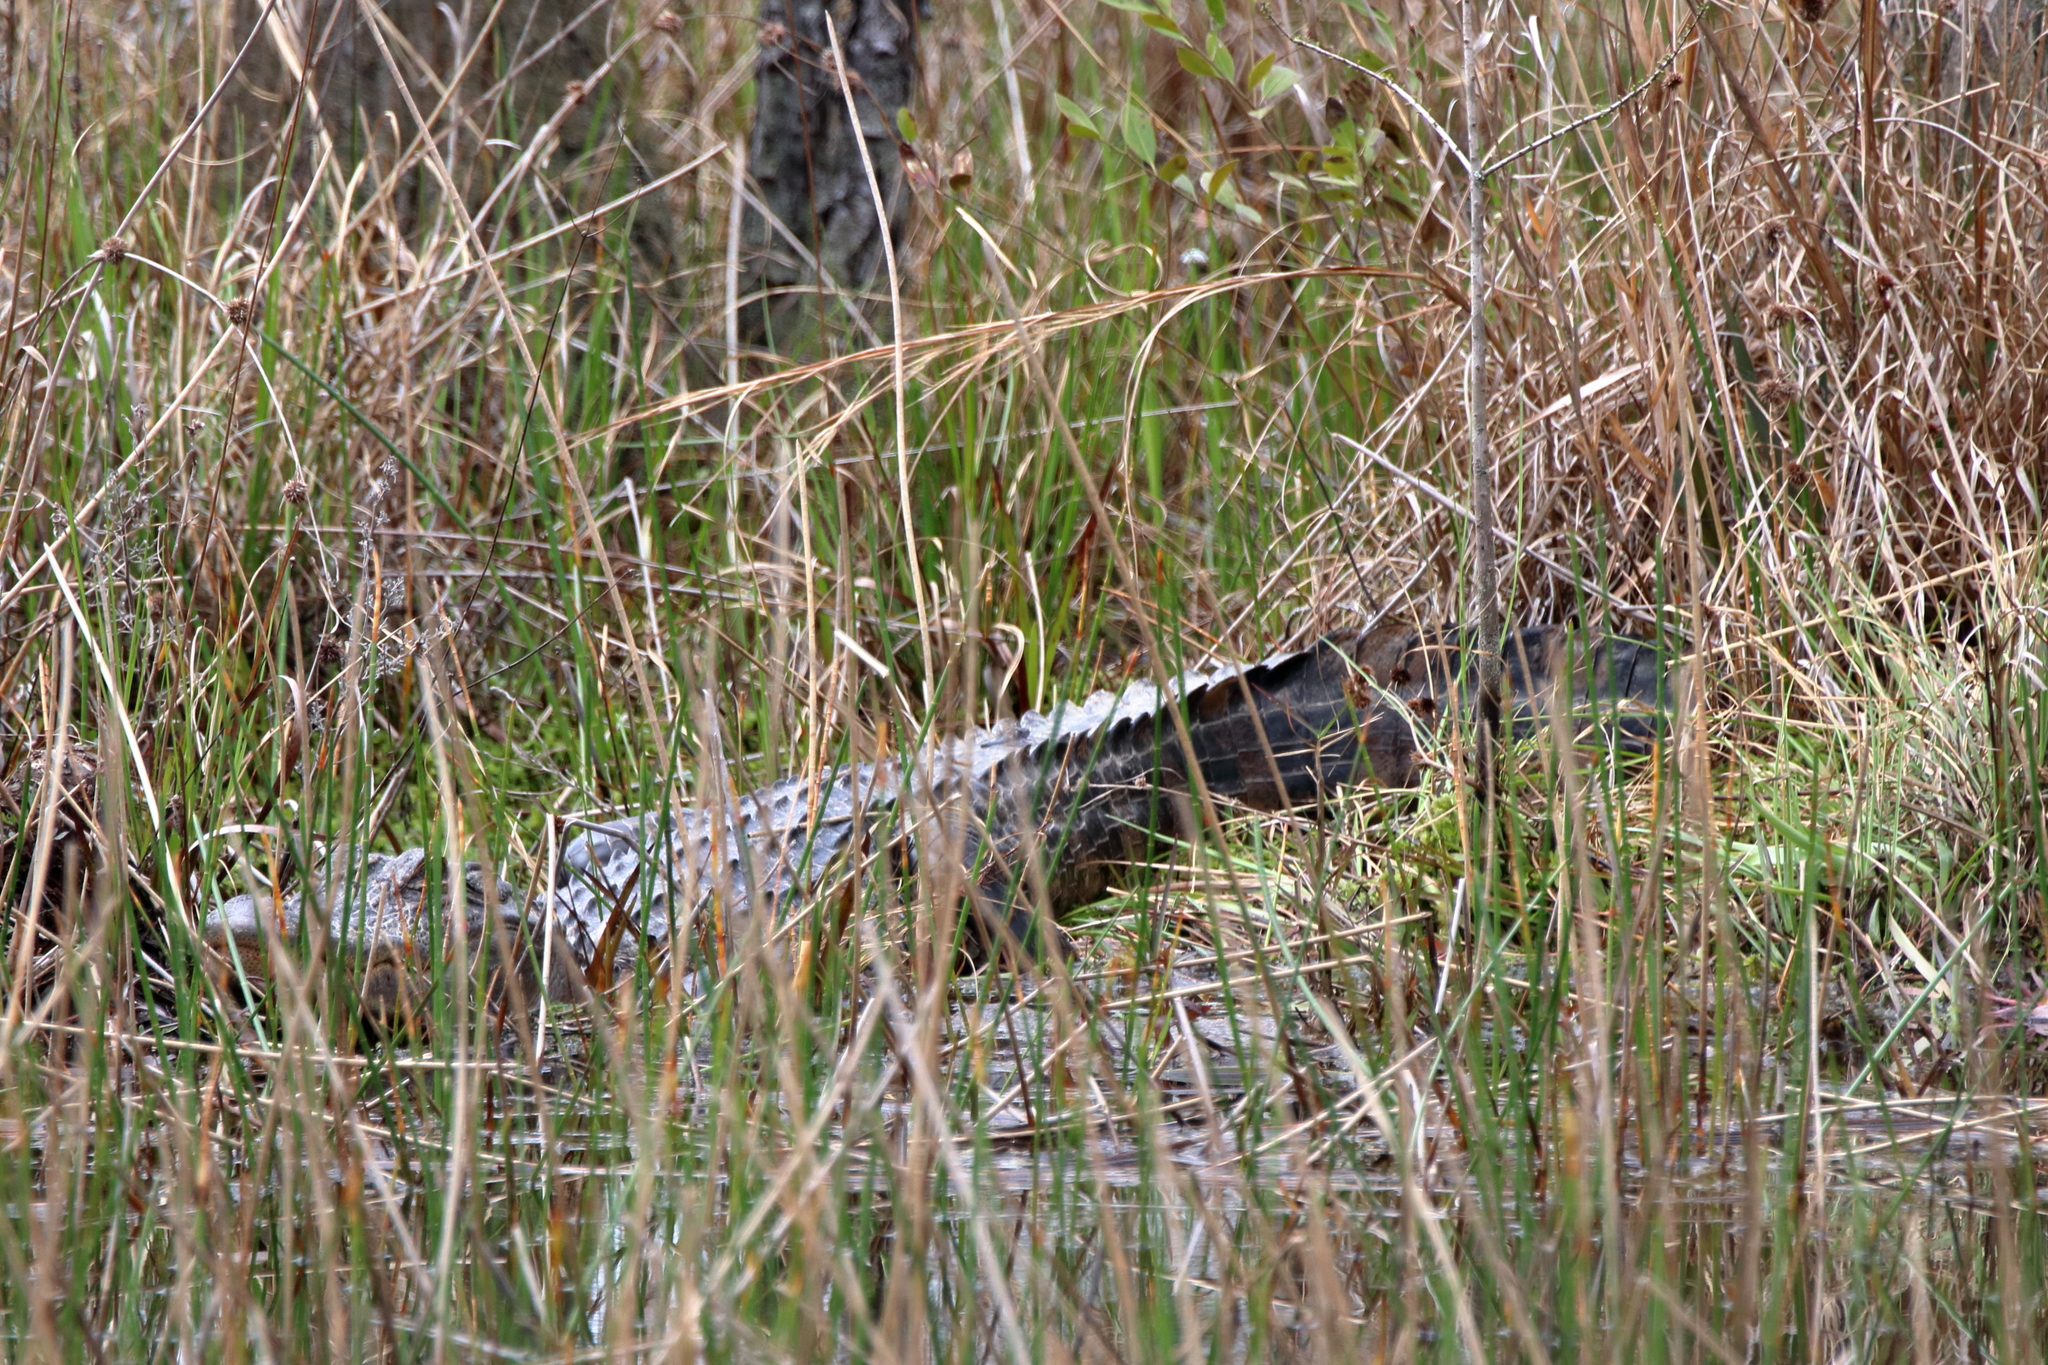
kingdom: Animalia
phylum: Chordata
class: Crocodylia
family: Alligatoridae
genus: Alligator
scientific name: Alligator mississippiensis
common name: American alligator
